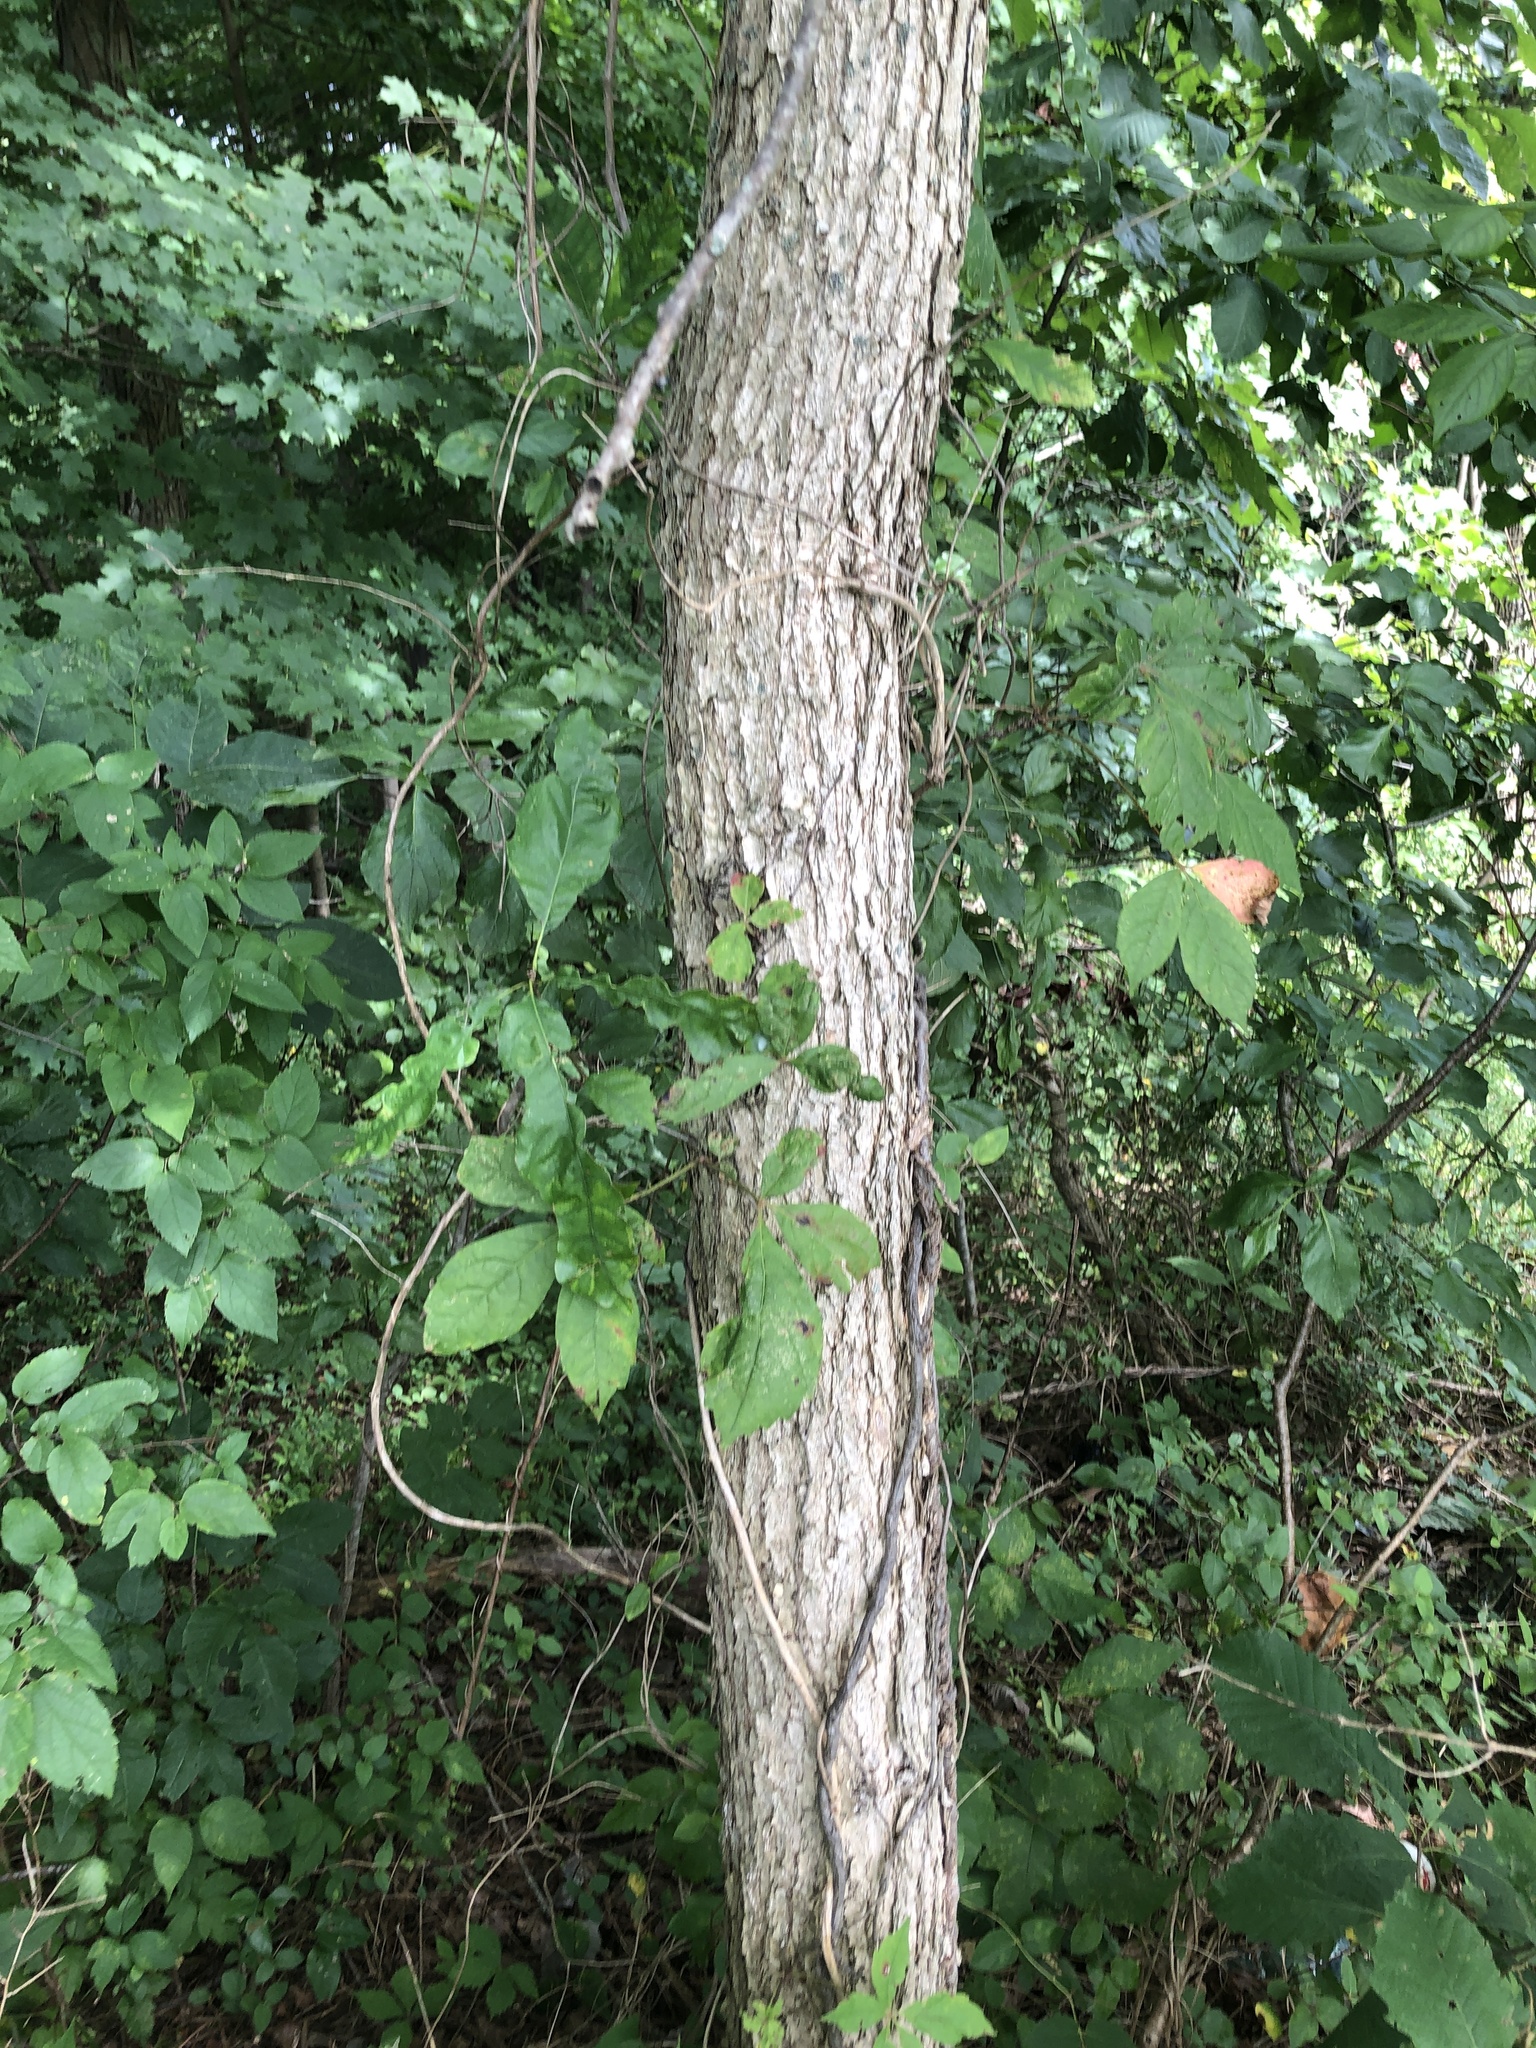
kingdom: Plantae
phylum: Tracheophyta
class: Magnoliopsida
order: Fagales
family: Fagaceae
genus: Quercus
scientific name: Quercus muehlenbergii
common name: Chinkapin oak
